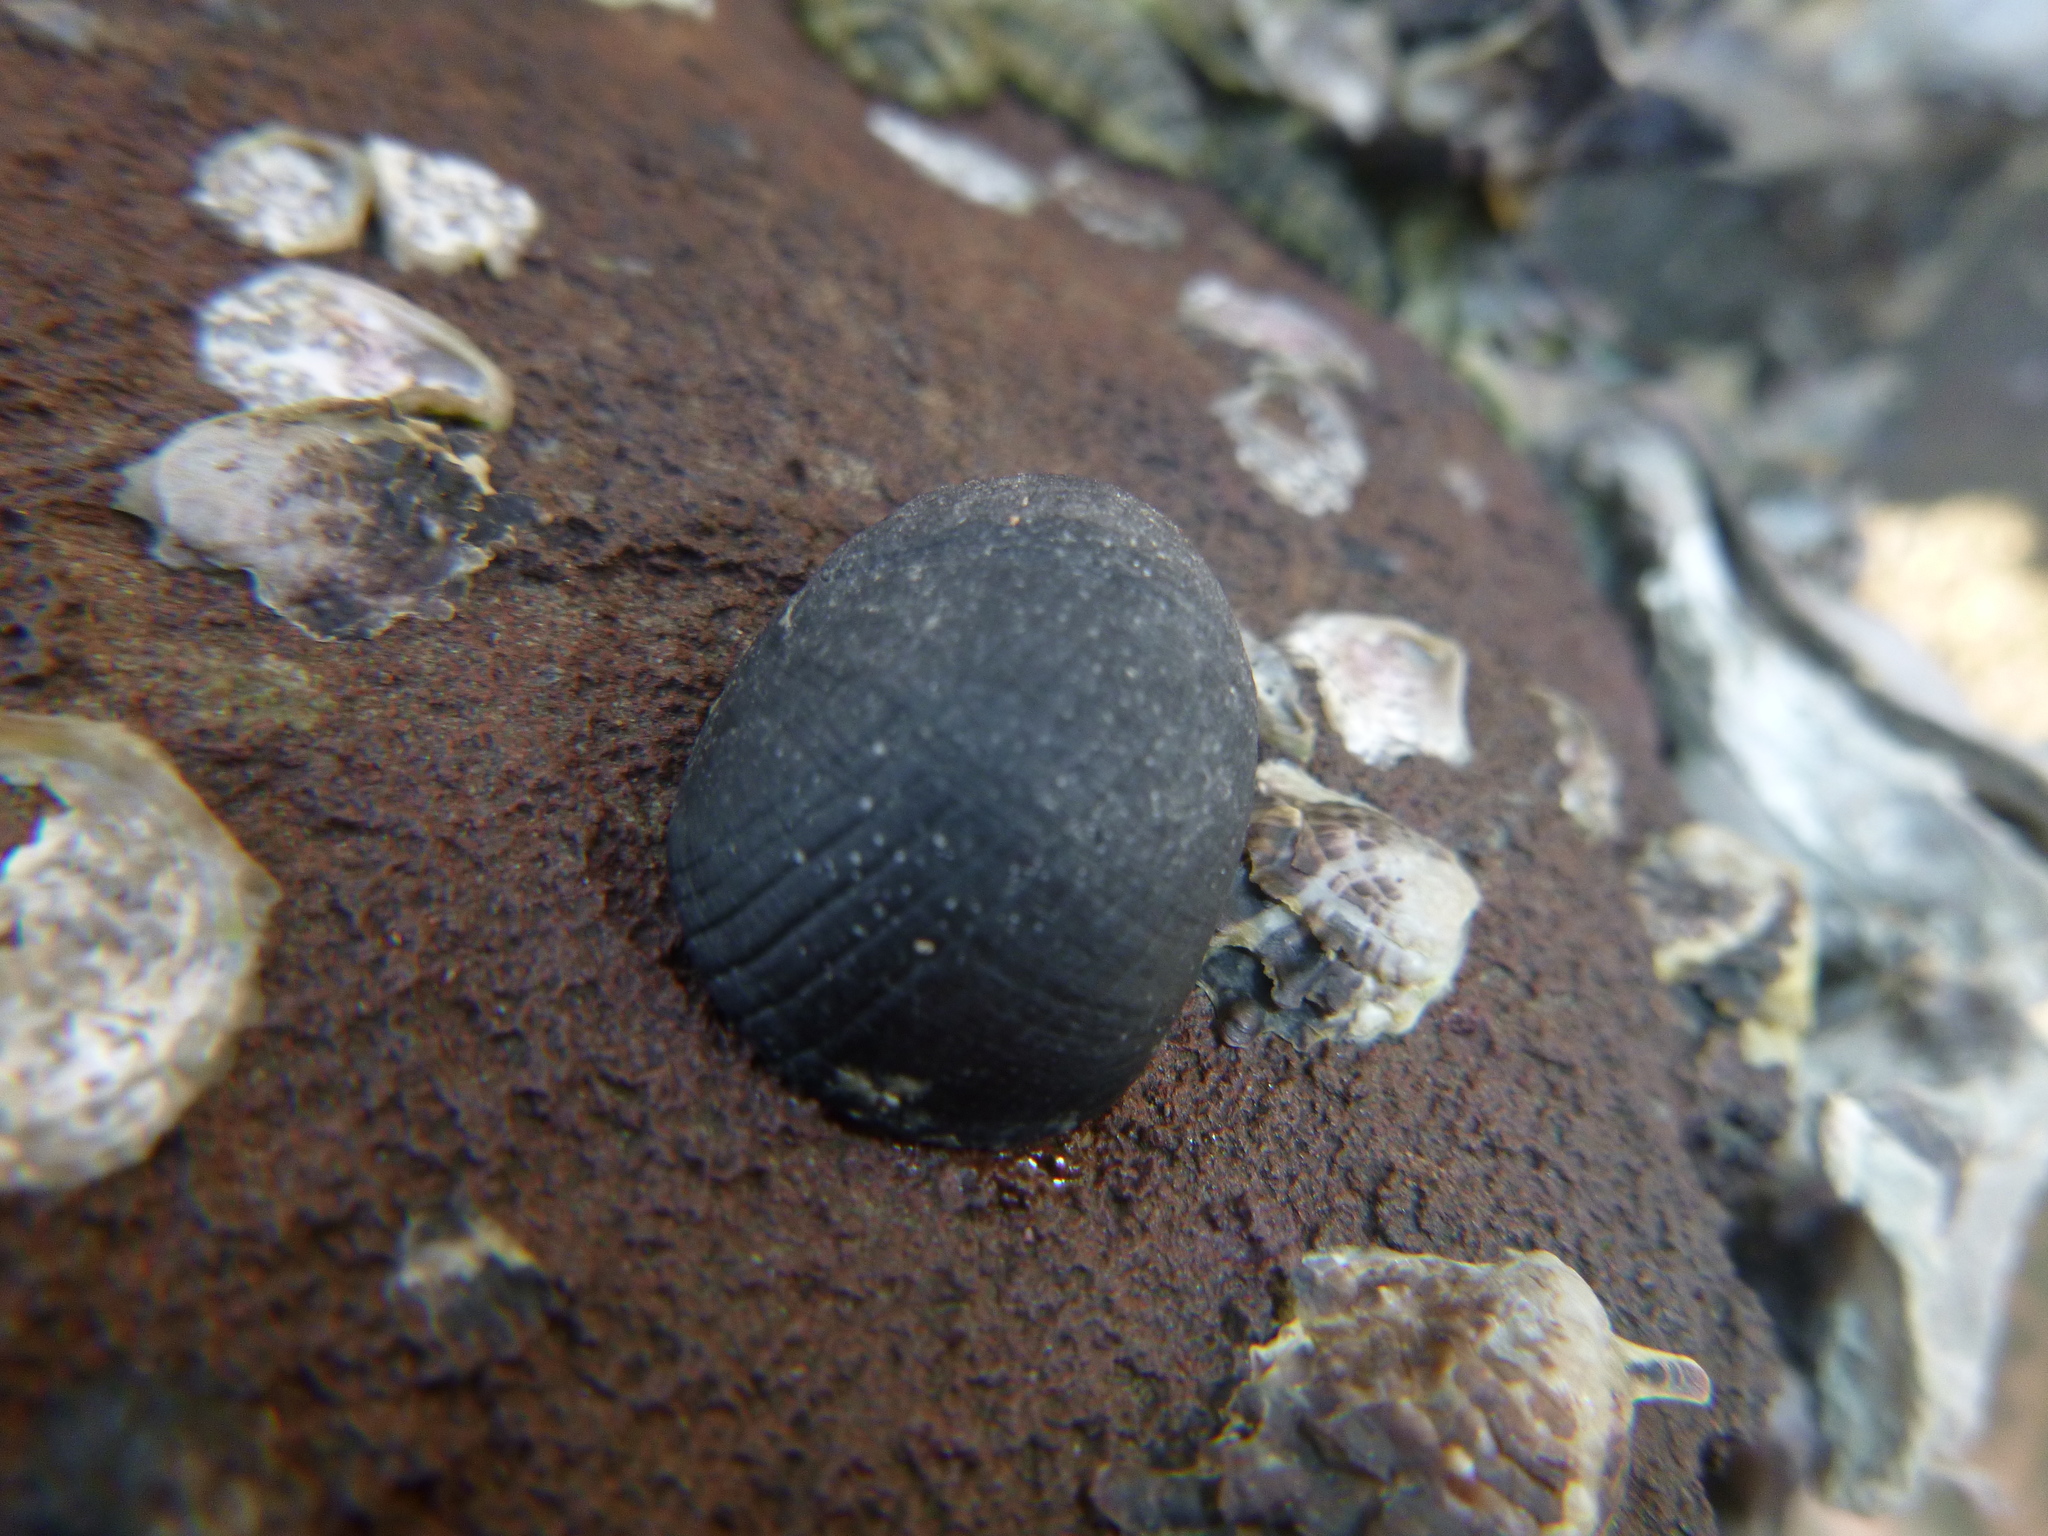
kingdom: Animalia
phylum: Mollusca
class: Gastropoda
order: Cycloneritida
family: Neritidae
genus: Nerita
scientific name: Nerita melanotragus
